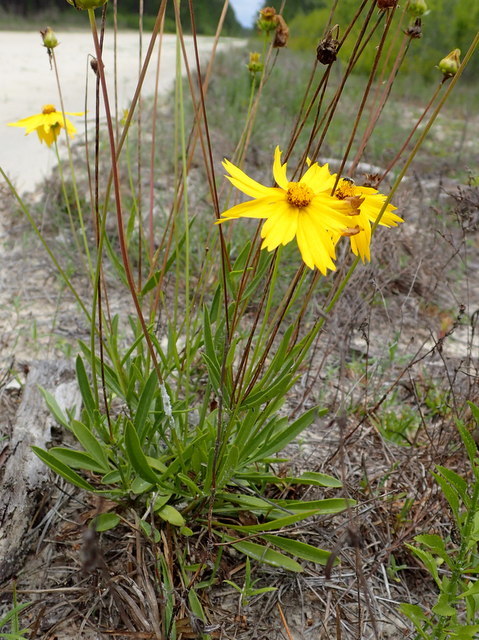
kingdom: Plantae
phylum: Tracheophyta
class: Magnoliopsida
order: Asterales
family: Asteraceae
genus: Coreopsis
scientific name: Coreopsis lanceolata
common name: Garden coreopsis
